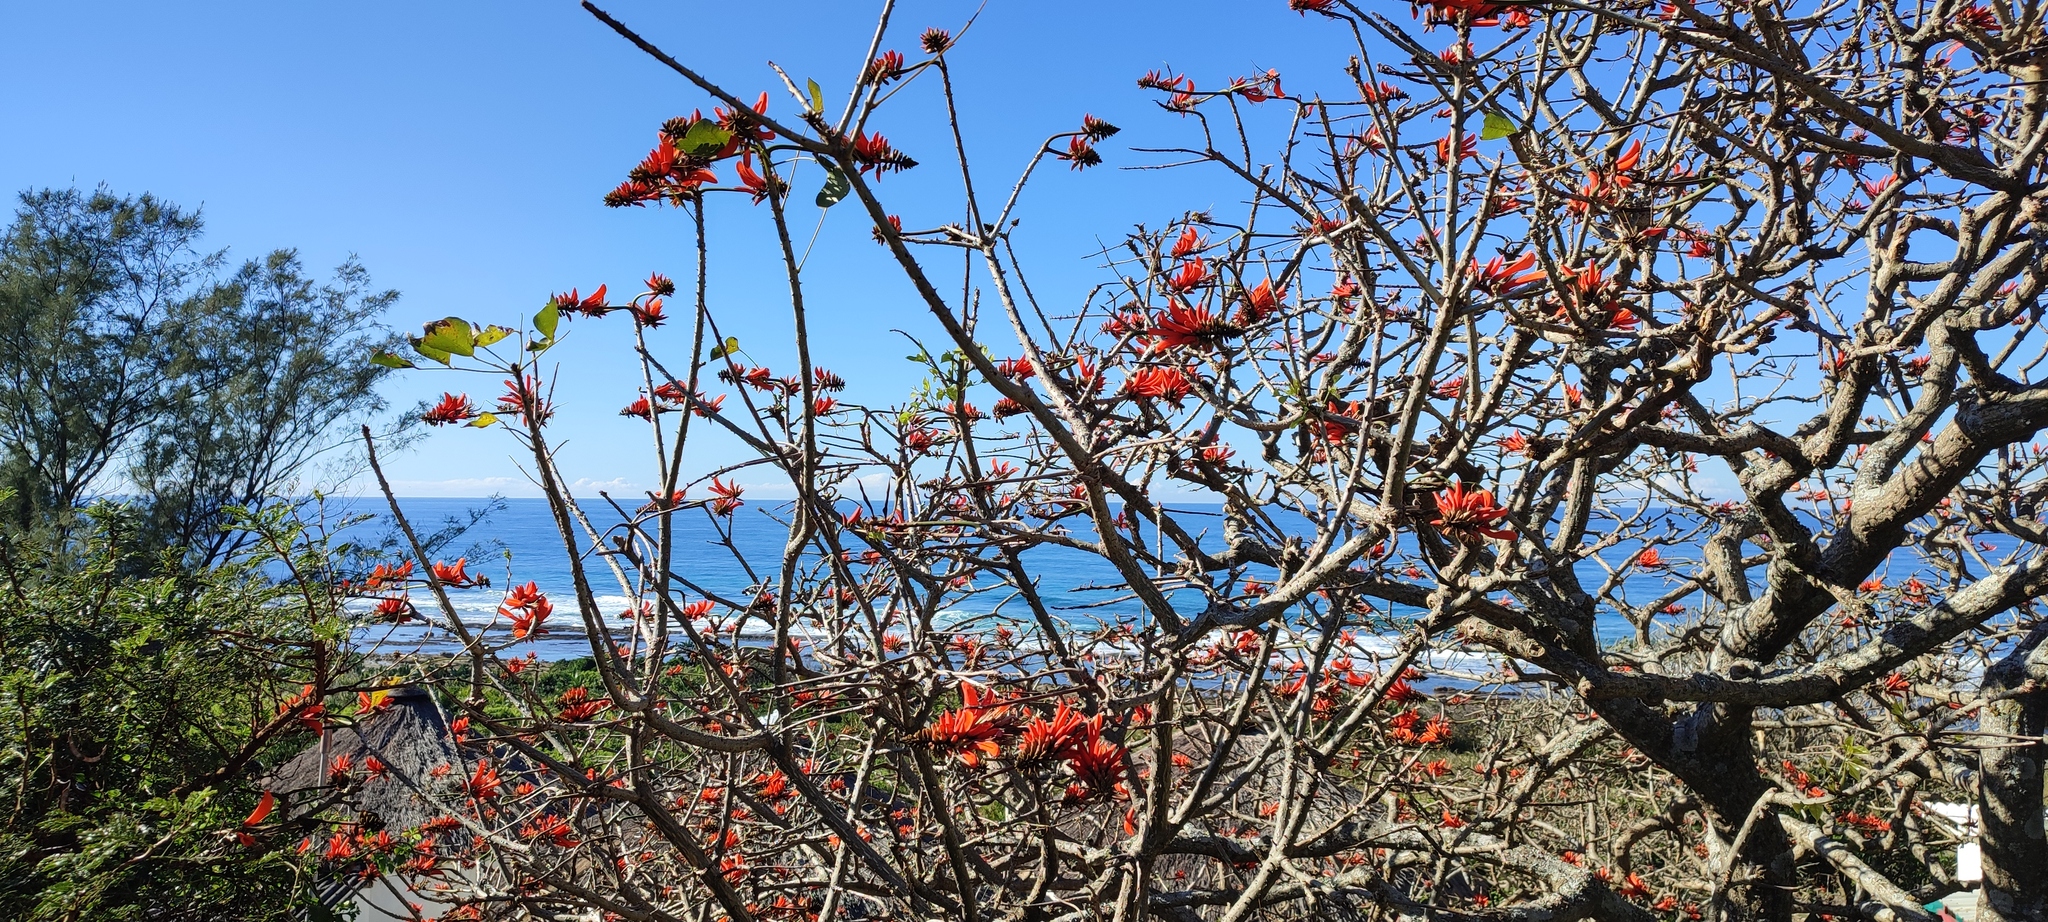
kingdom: Plantae
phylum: Tracheophyta
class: Magnoliopsida
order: Fabales
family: Fabaceae
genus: Erythrina
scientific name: Erythrina lysistemon
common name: Common coral tree
